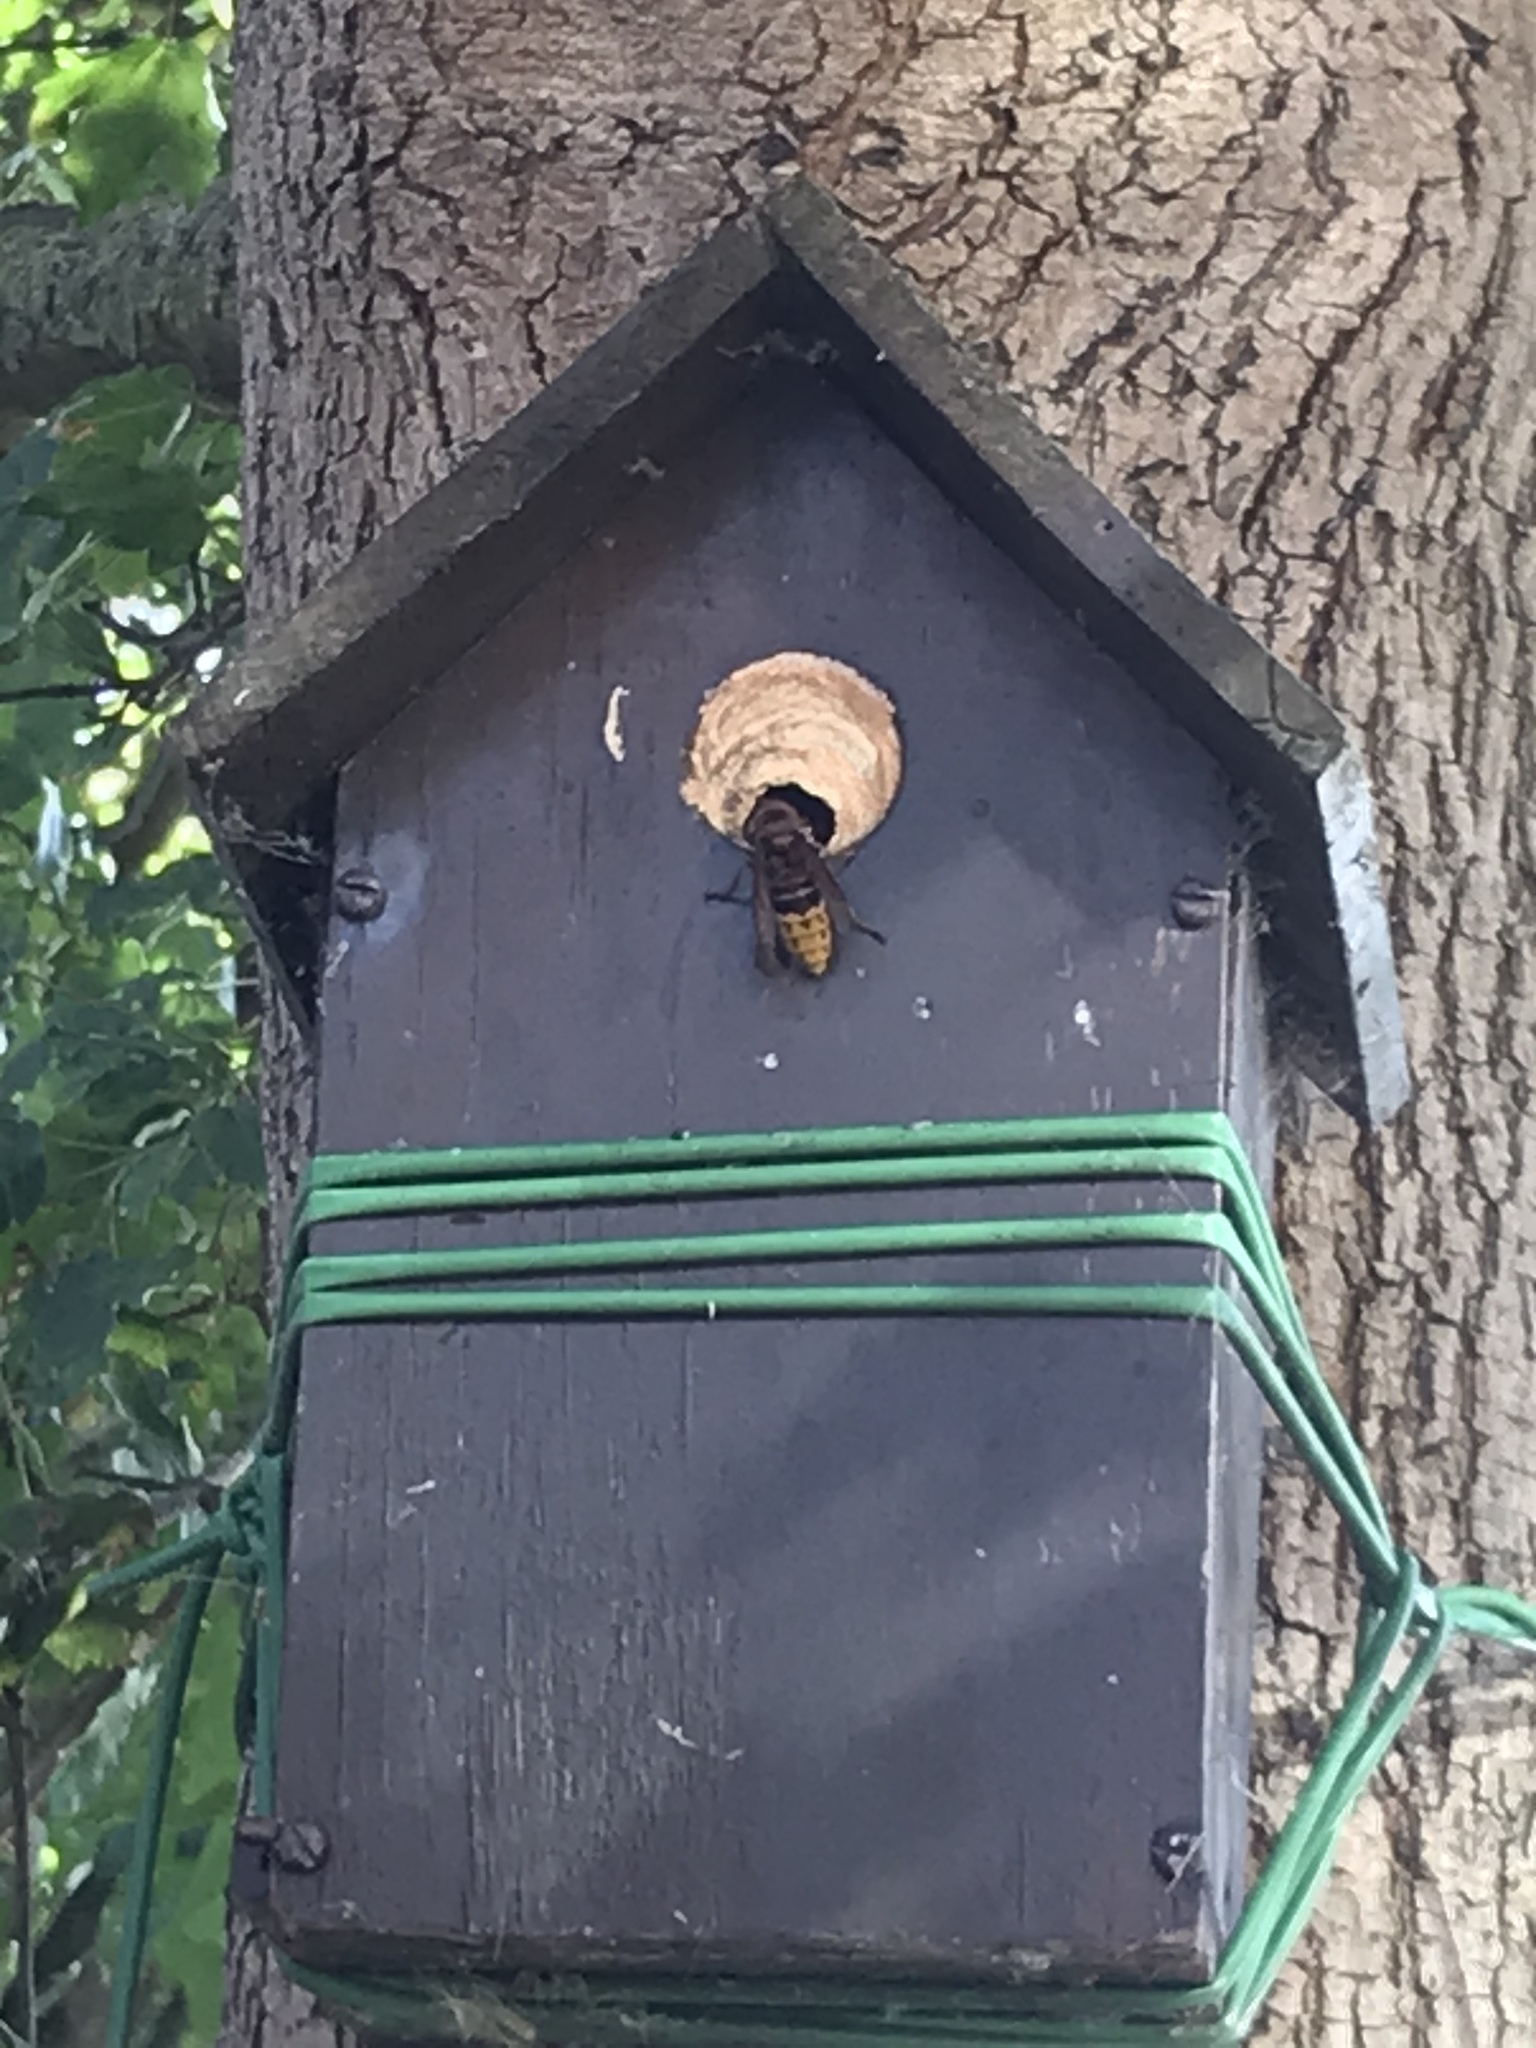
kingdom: Animalia
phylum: Arthropoda
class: Insecta
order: Hymenoptera
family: Vespidae
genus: Vespa
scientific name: Vespa crabro
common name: Hornet
